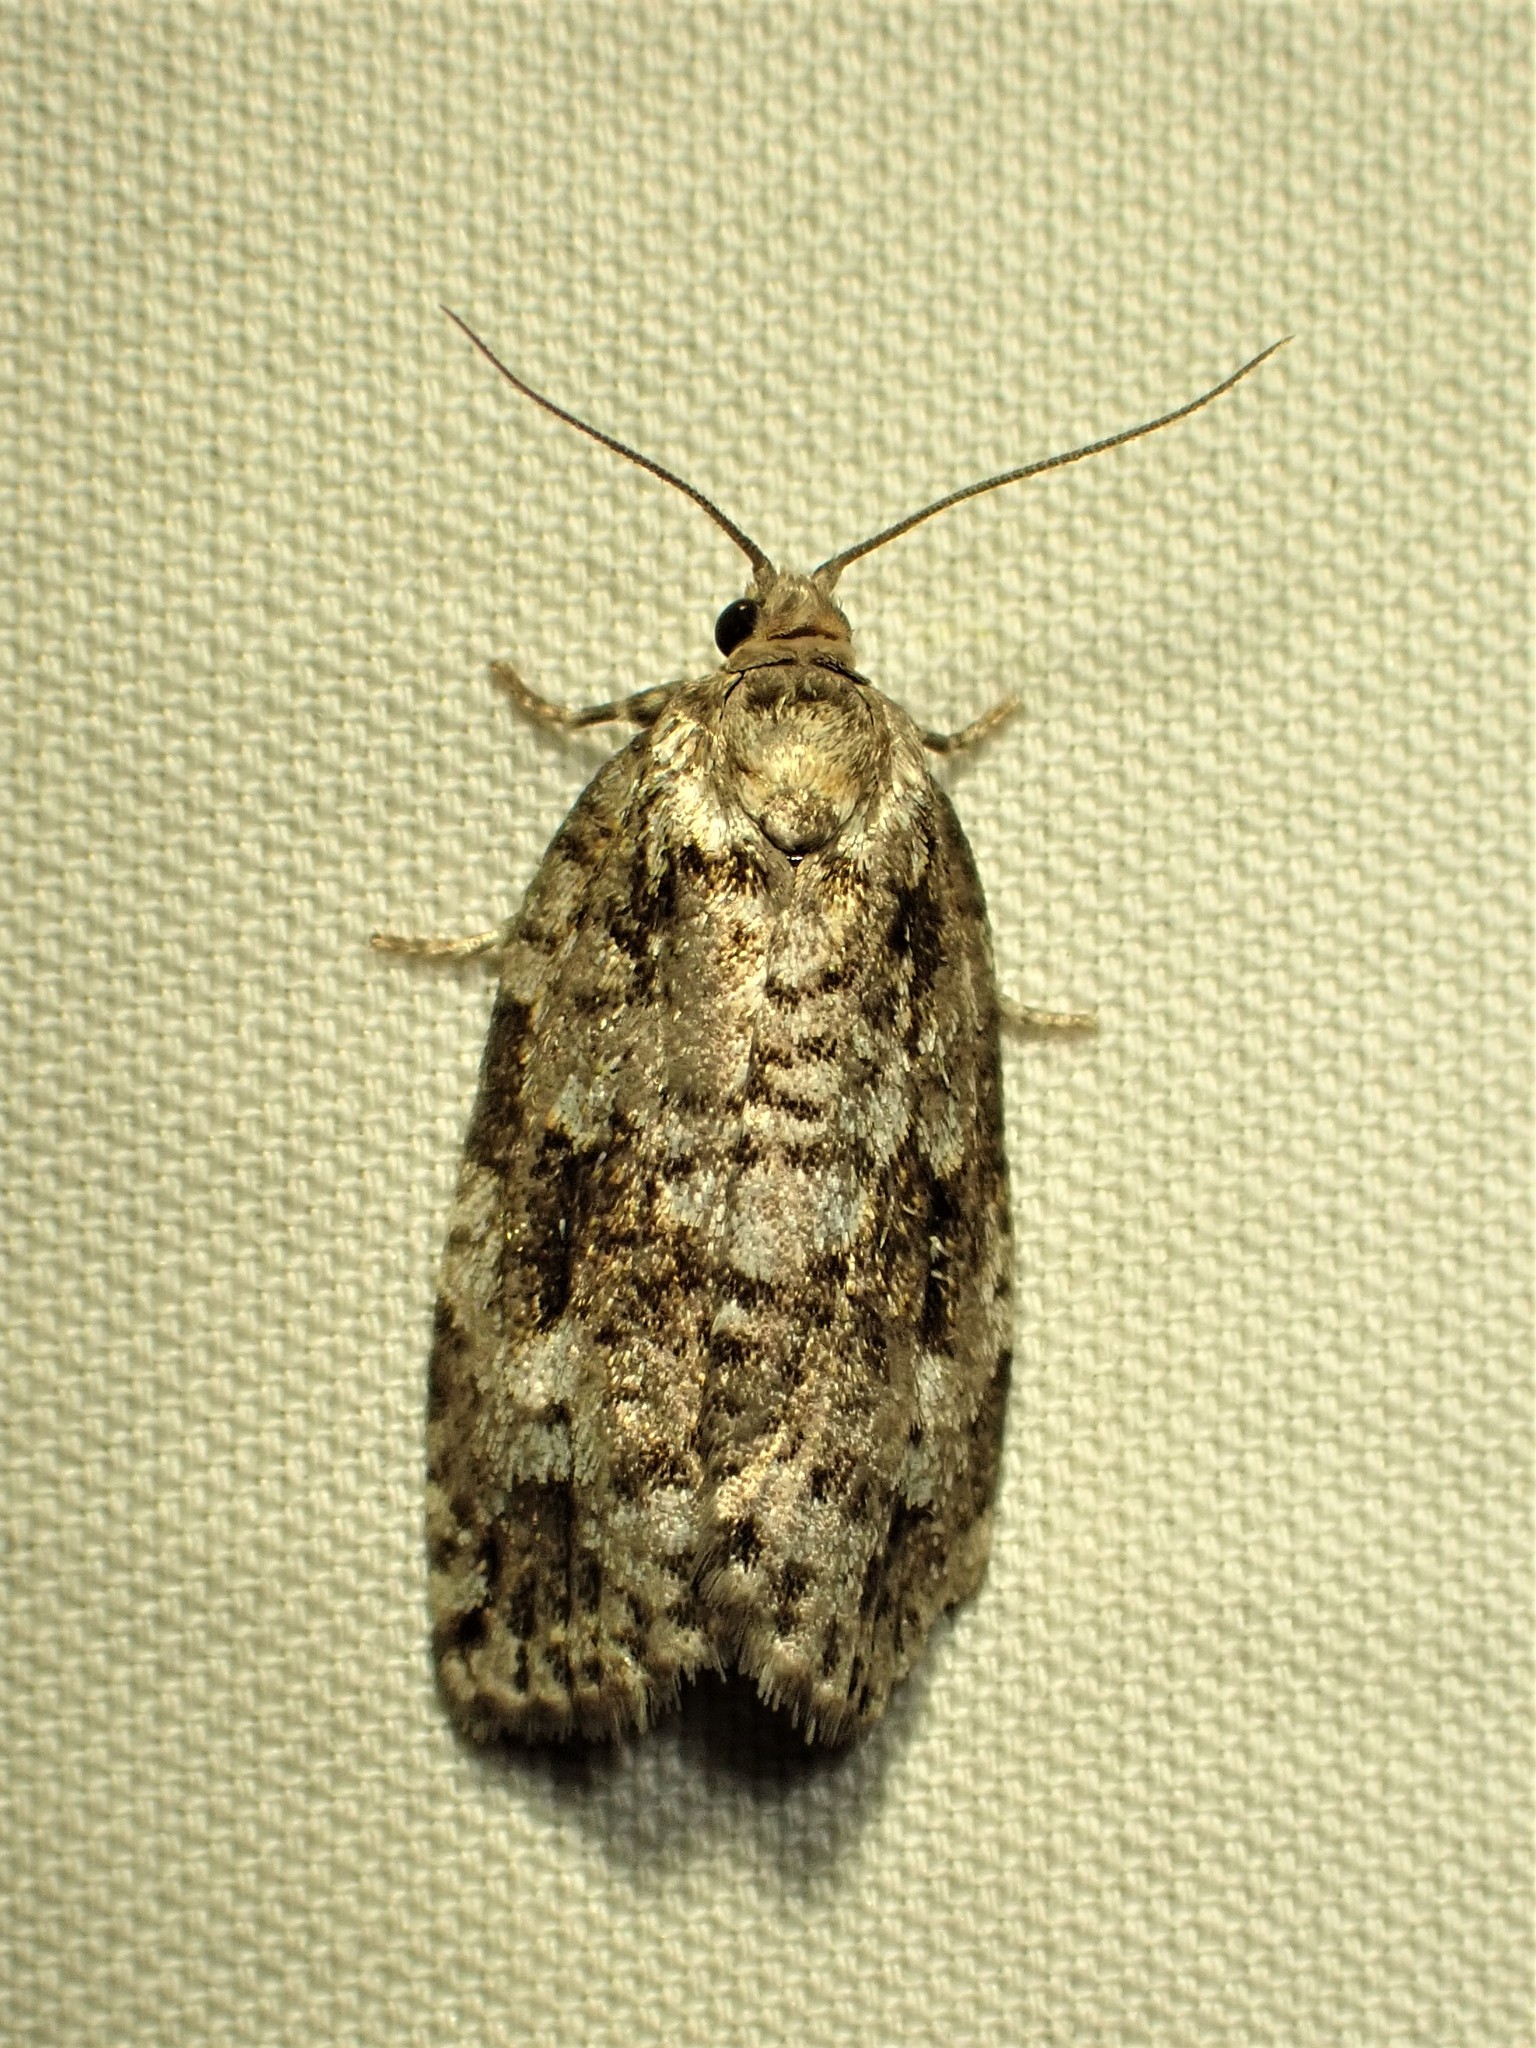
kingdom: Animalia
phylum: Arthropoda
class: Insecta
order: Lepidoptera
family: Tortricidae
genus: Choristoneura
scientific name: Choristoneura fumiferana
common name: Spruce budworm
